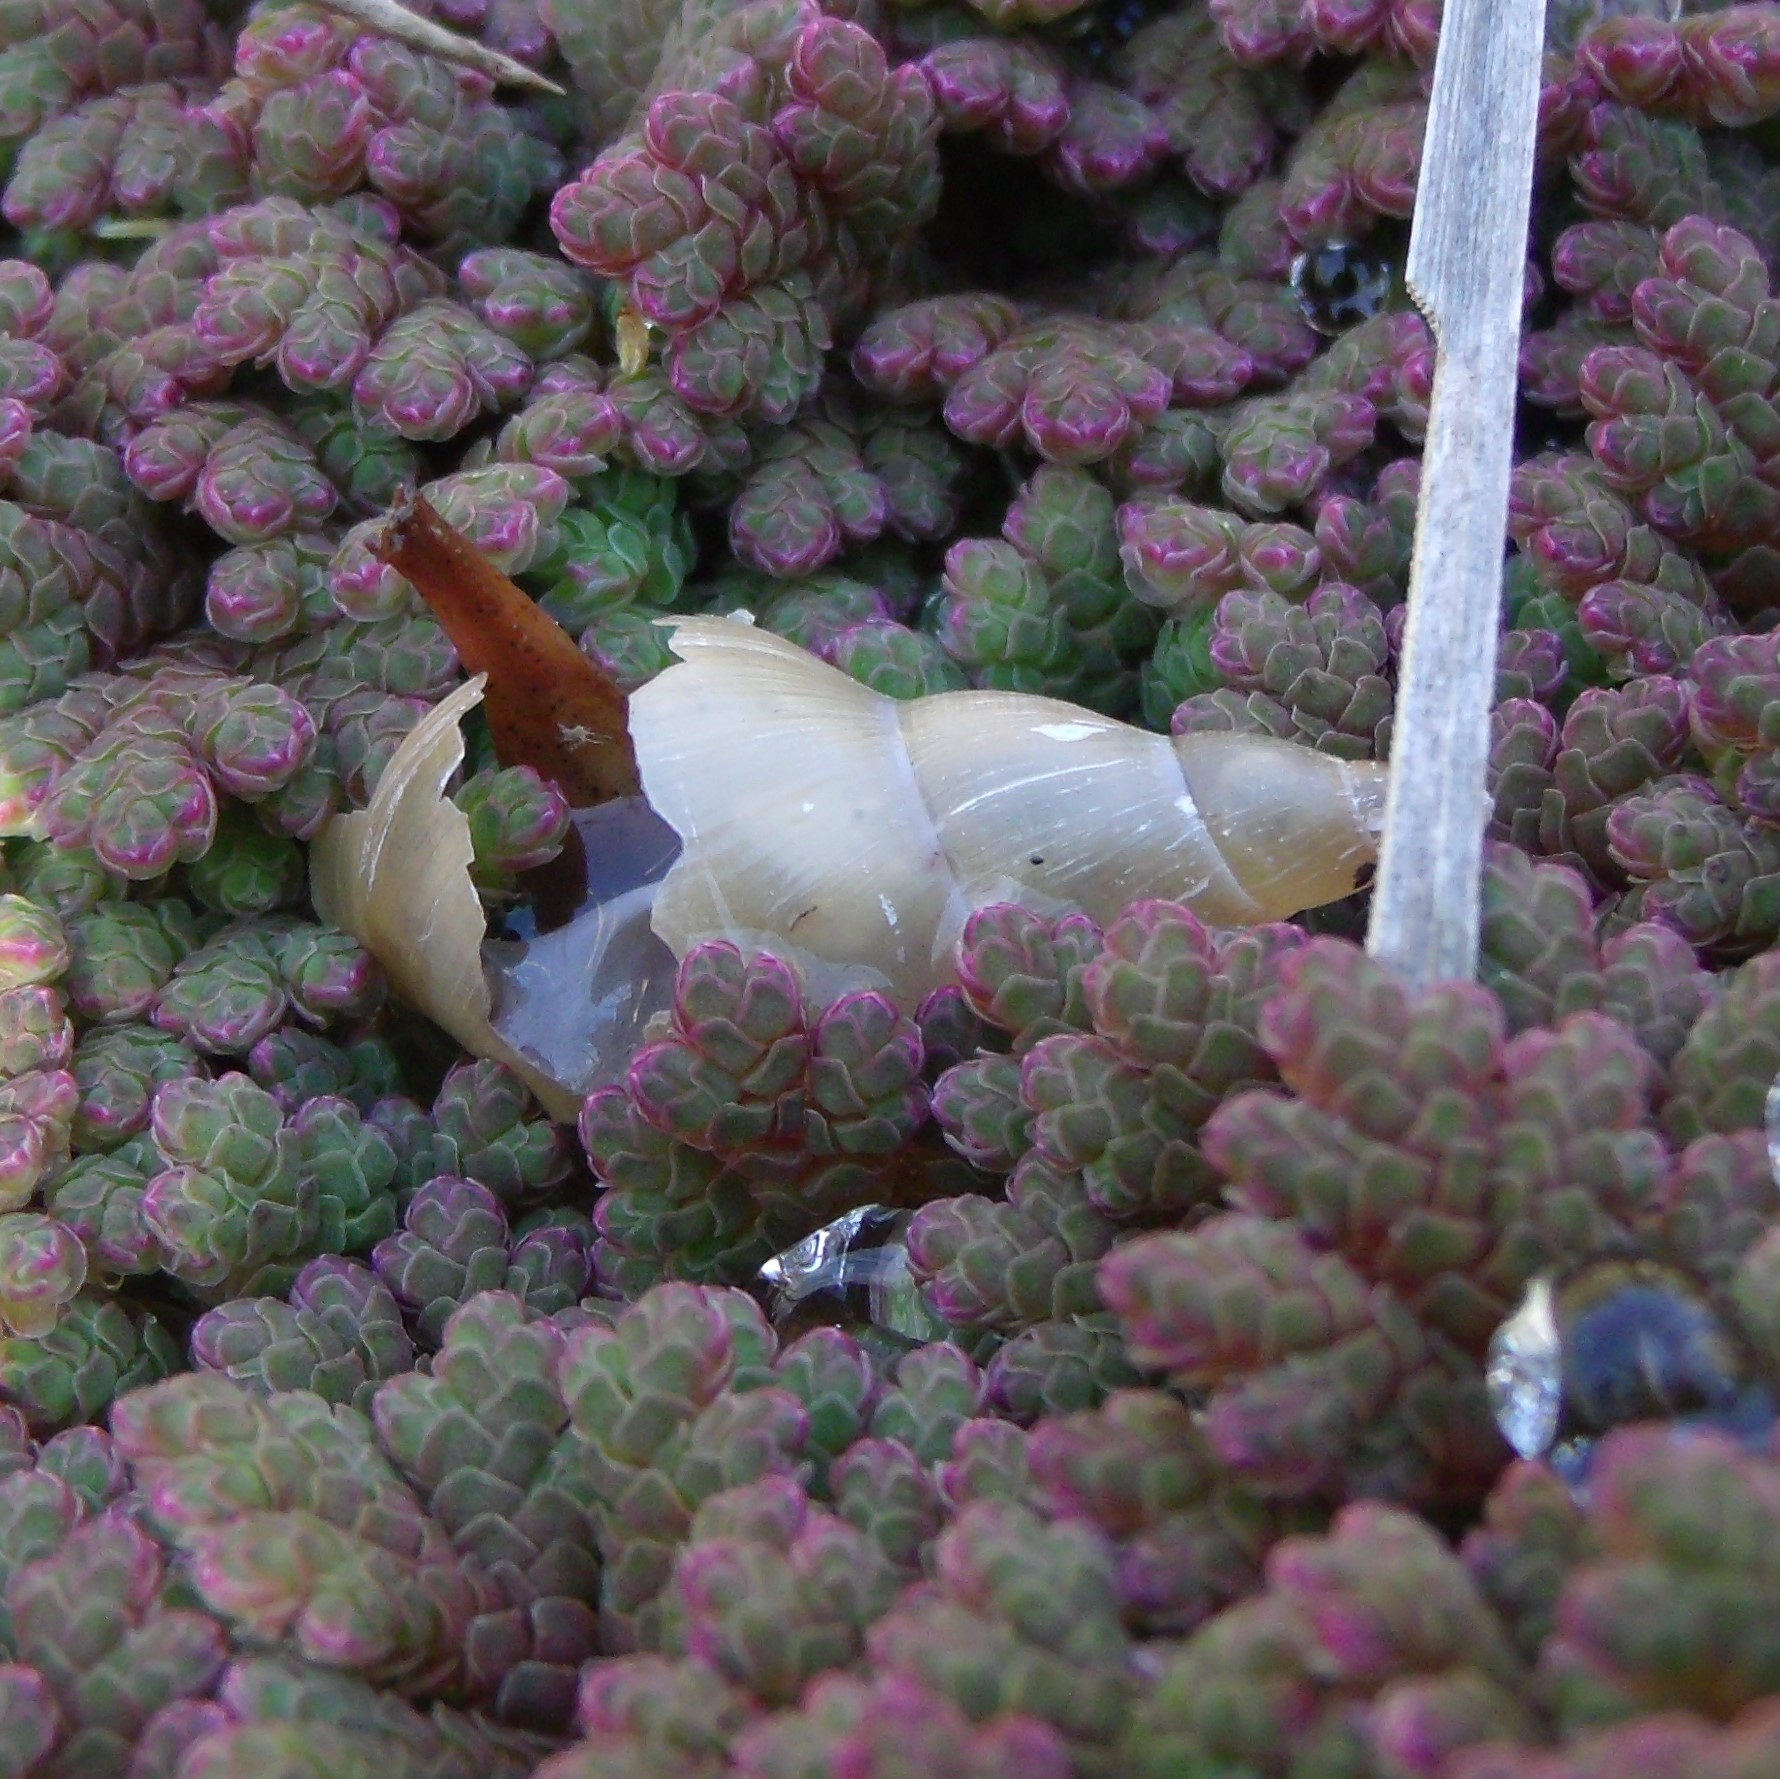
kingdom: Animalia
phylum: Mollusca
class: Gastropoda
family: Lymnaeidae
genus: Lymnaea
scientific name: Lymnaea stagnalis
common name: Great pond snail
